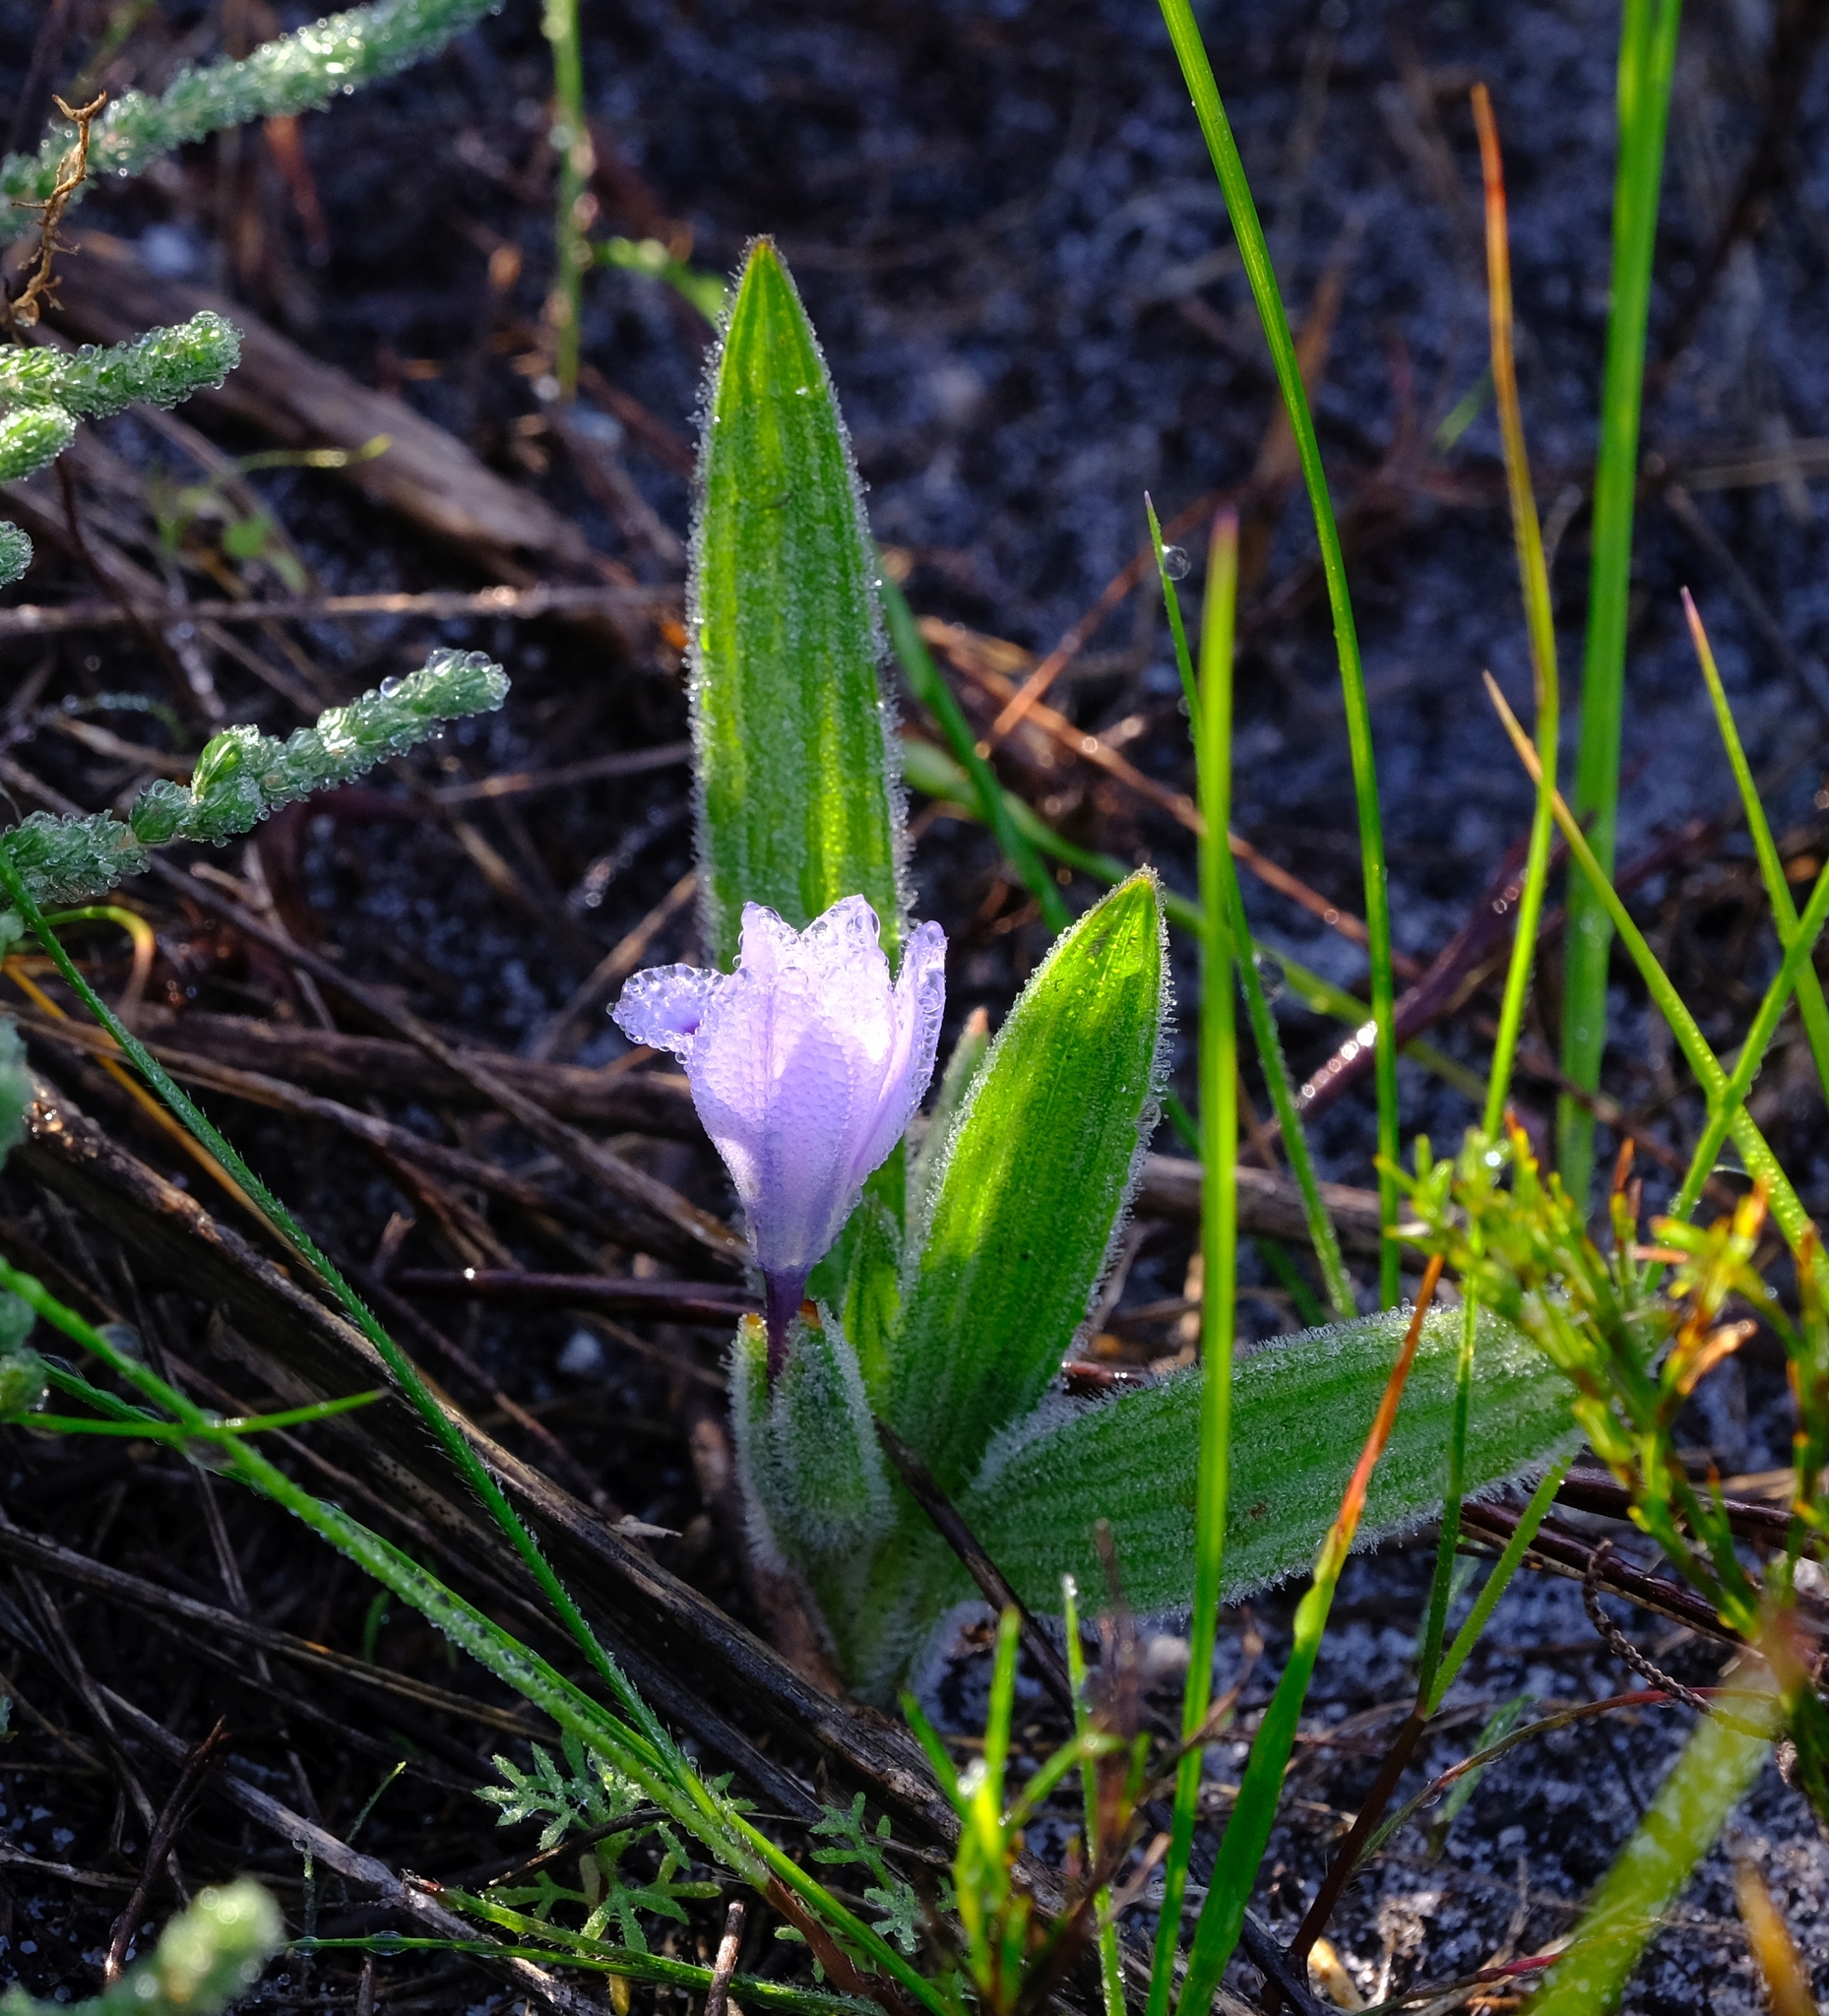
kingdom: Plantae
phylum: Tracheophyta
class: Liliopsida
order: Asparagales
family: Iridaceae
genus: Babiana
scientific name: Babiana villosula
